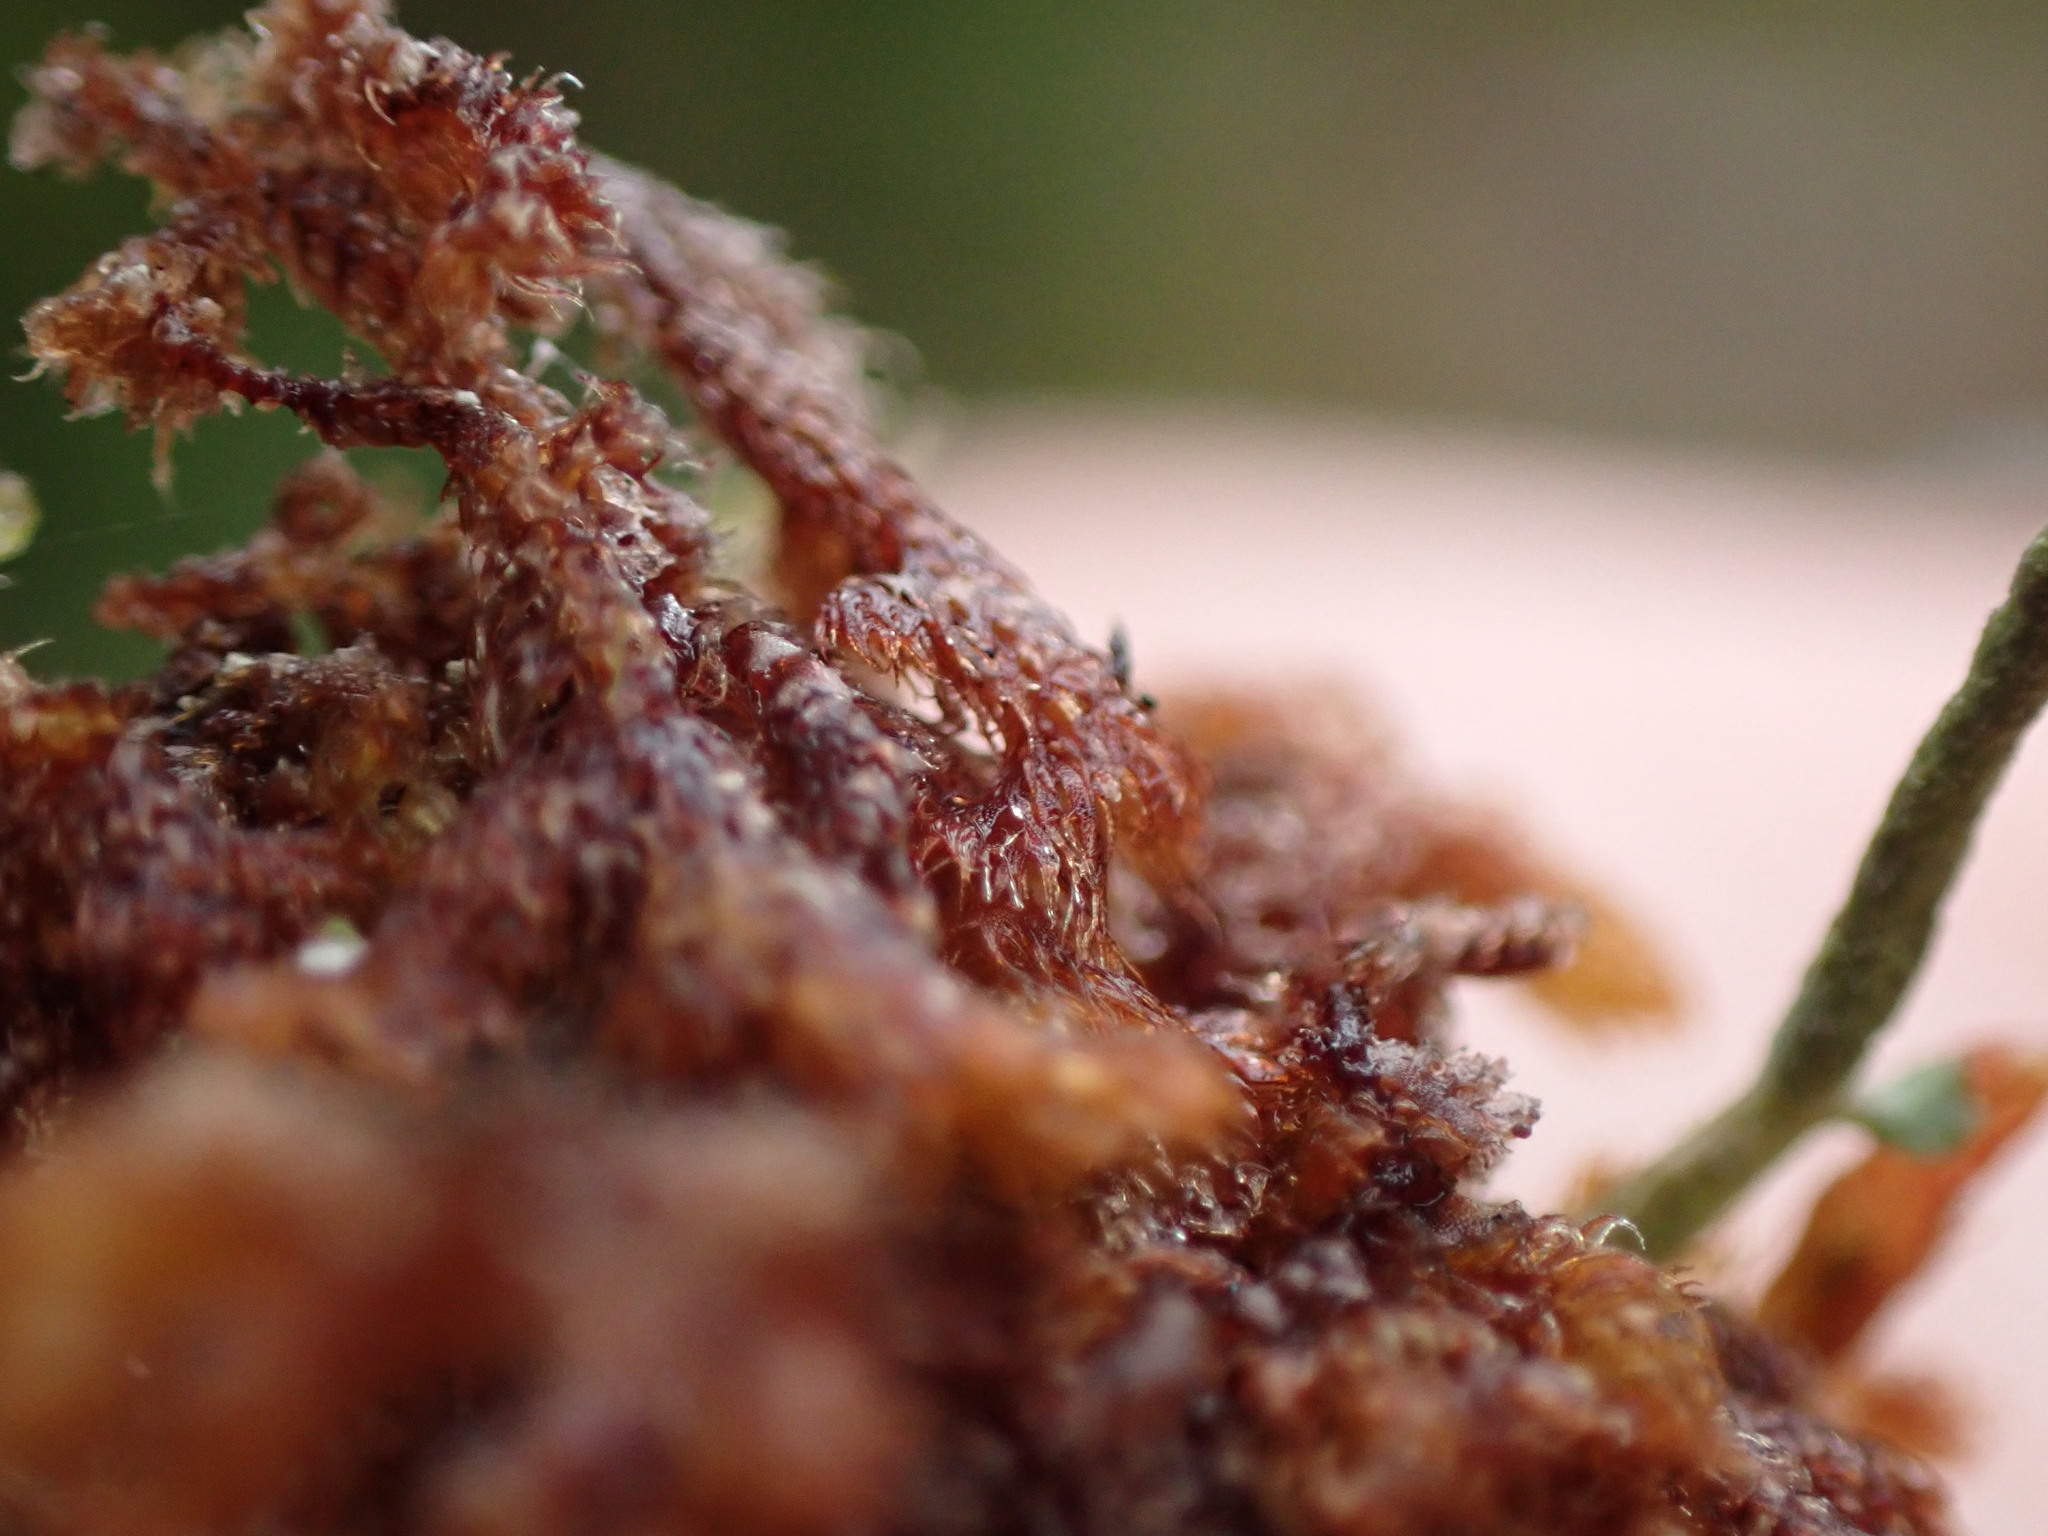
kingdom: Plantae
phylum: Marchantiophyta
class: Jungermanniopsida
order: Ptilidiales
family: Ptilidiaceae
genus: Ptilidium
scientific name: Ptilidium californicum
